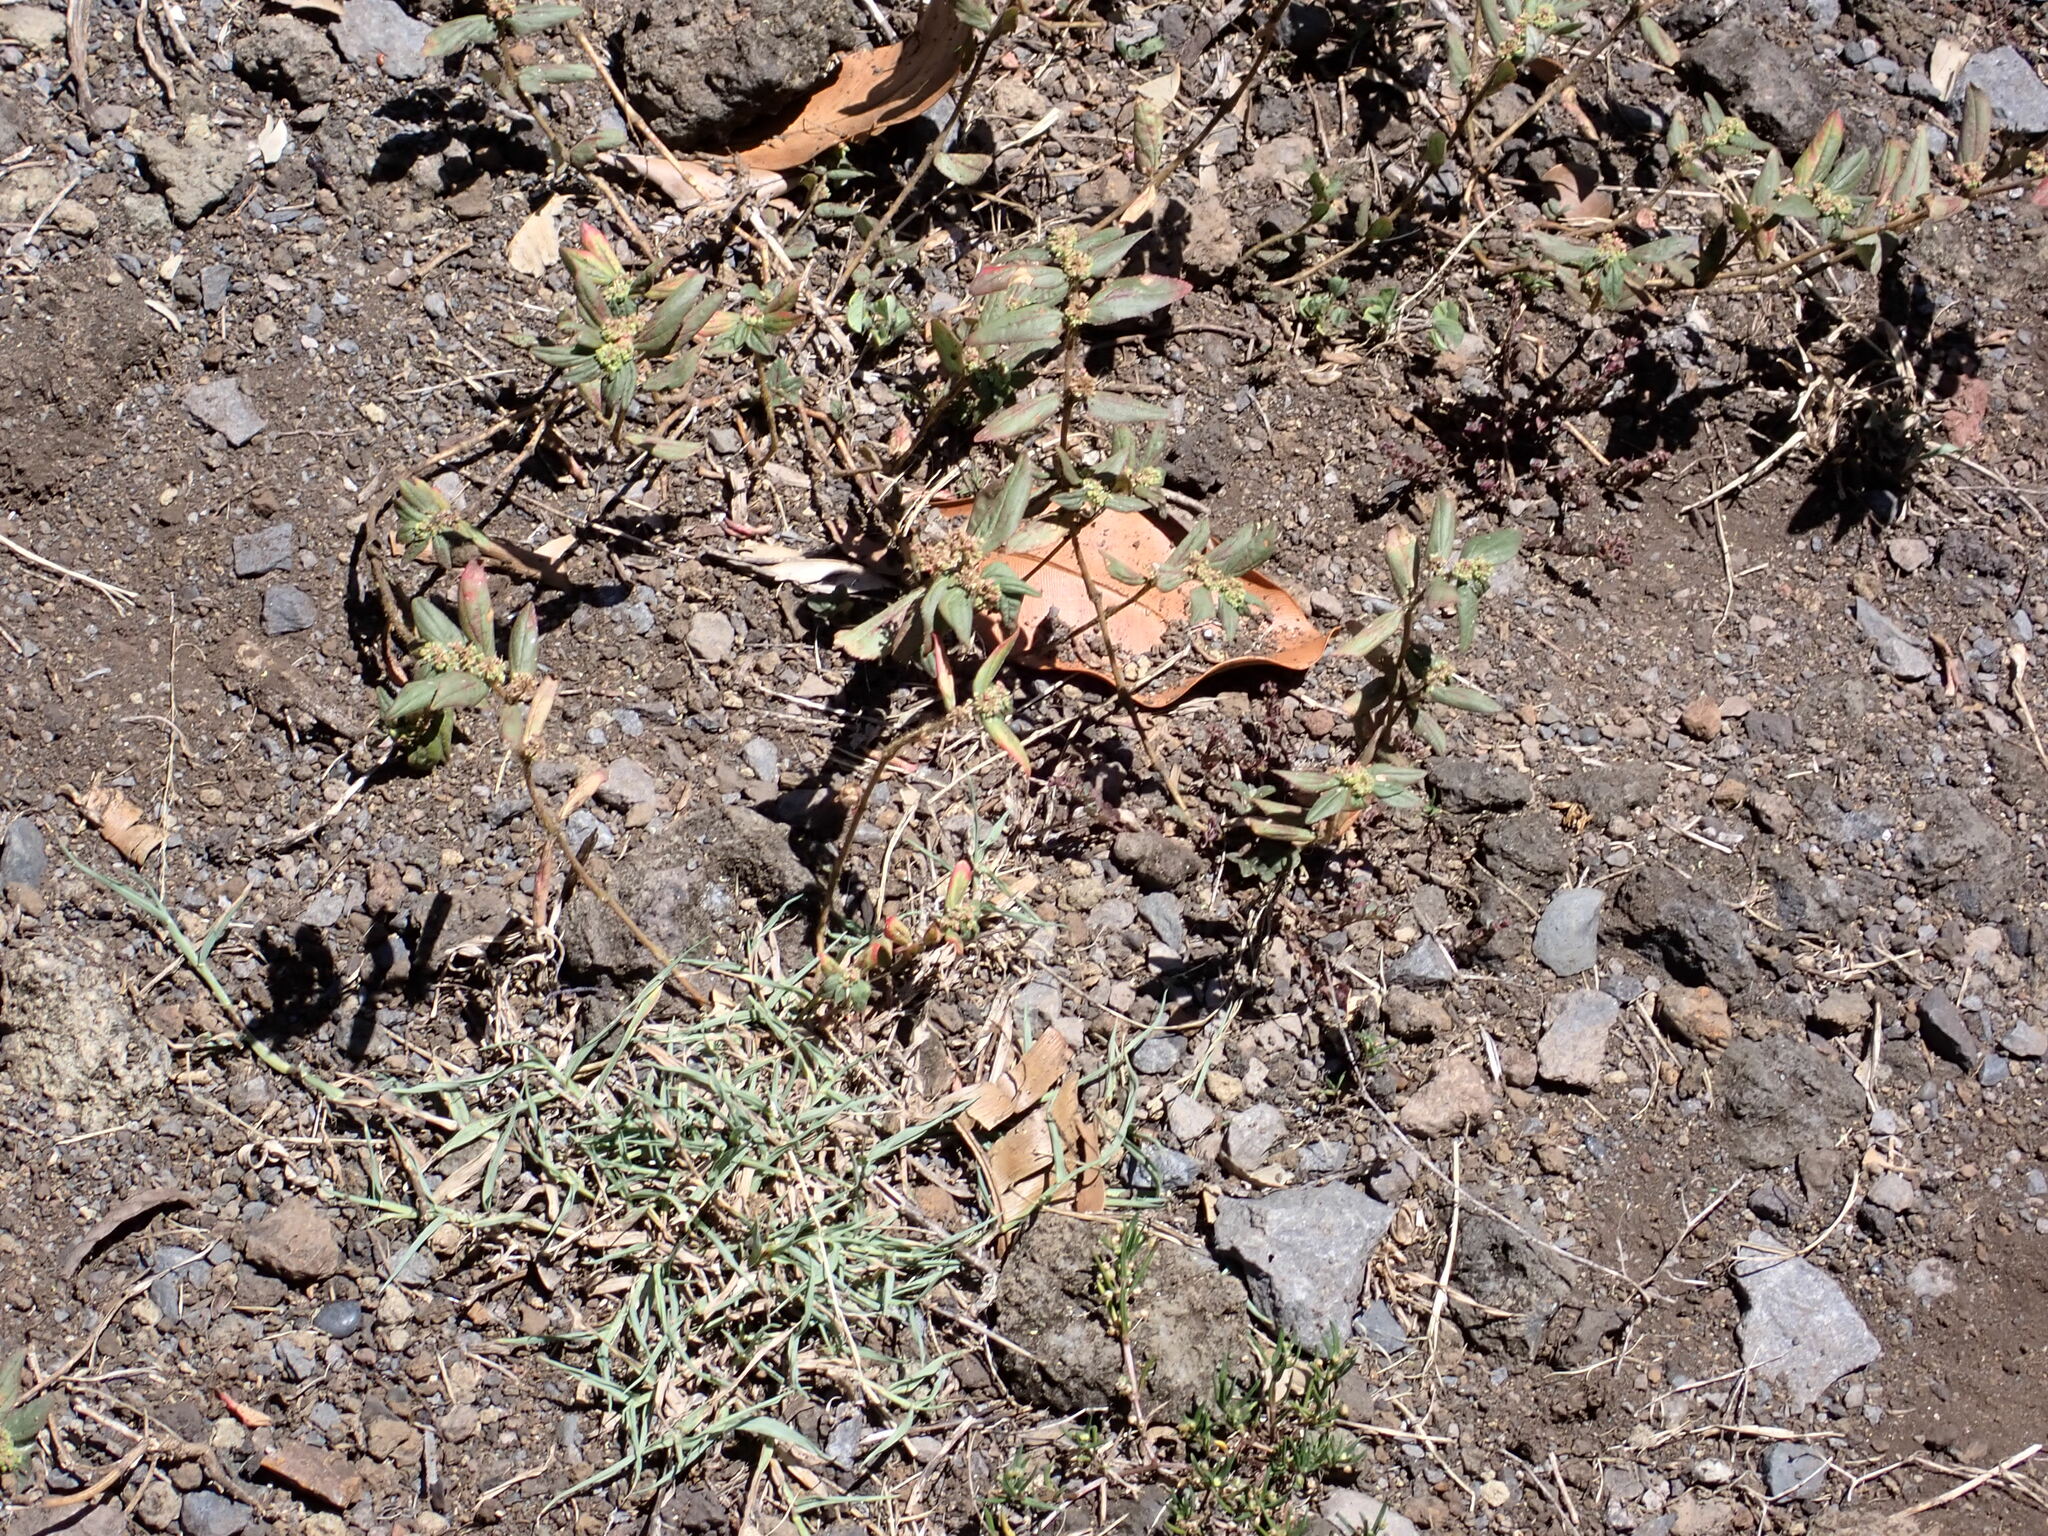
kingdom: Plantae
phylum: Tracheophyta
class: Magnoliopsida
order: Malpighiales
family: Euphorbiaceae
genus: Euphorbia
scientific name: Euphorbia hirta
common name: Pillpod sandmat
